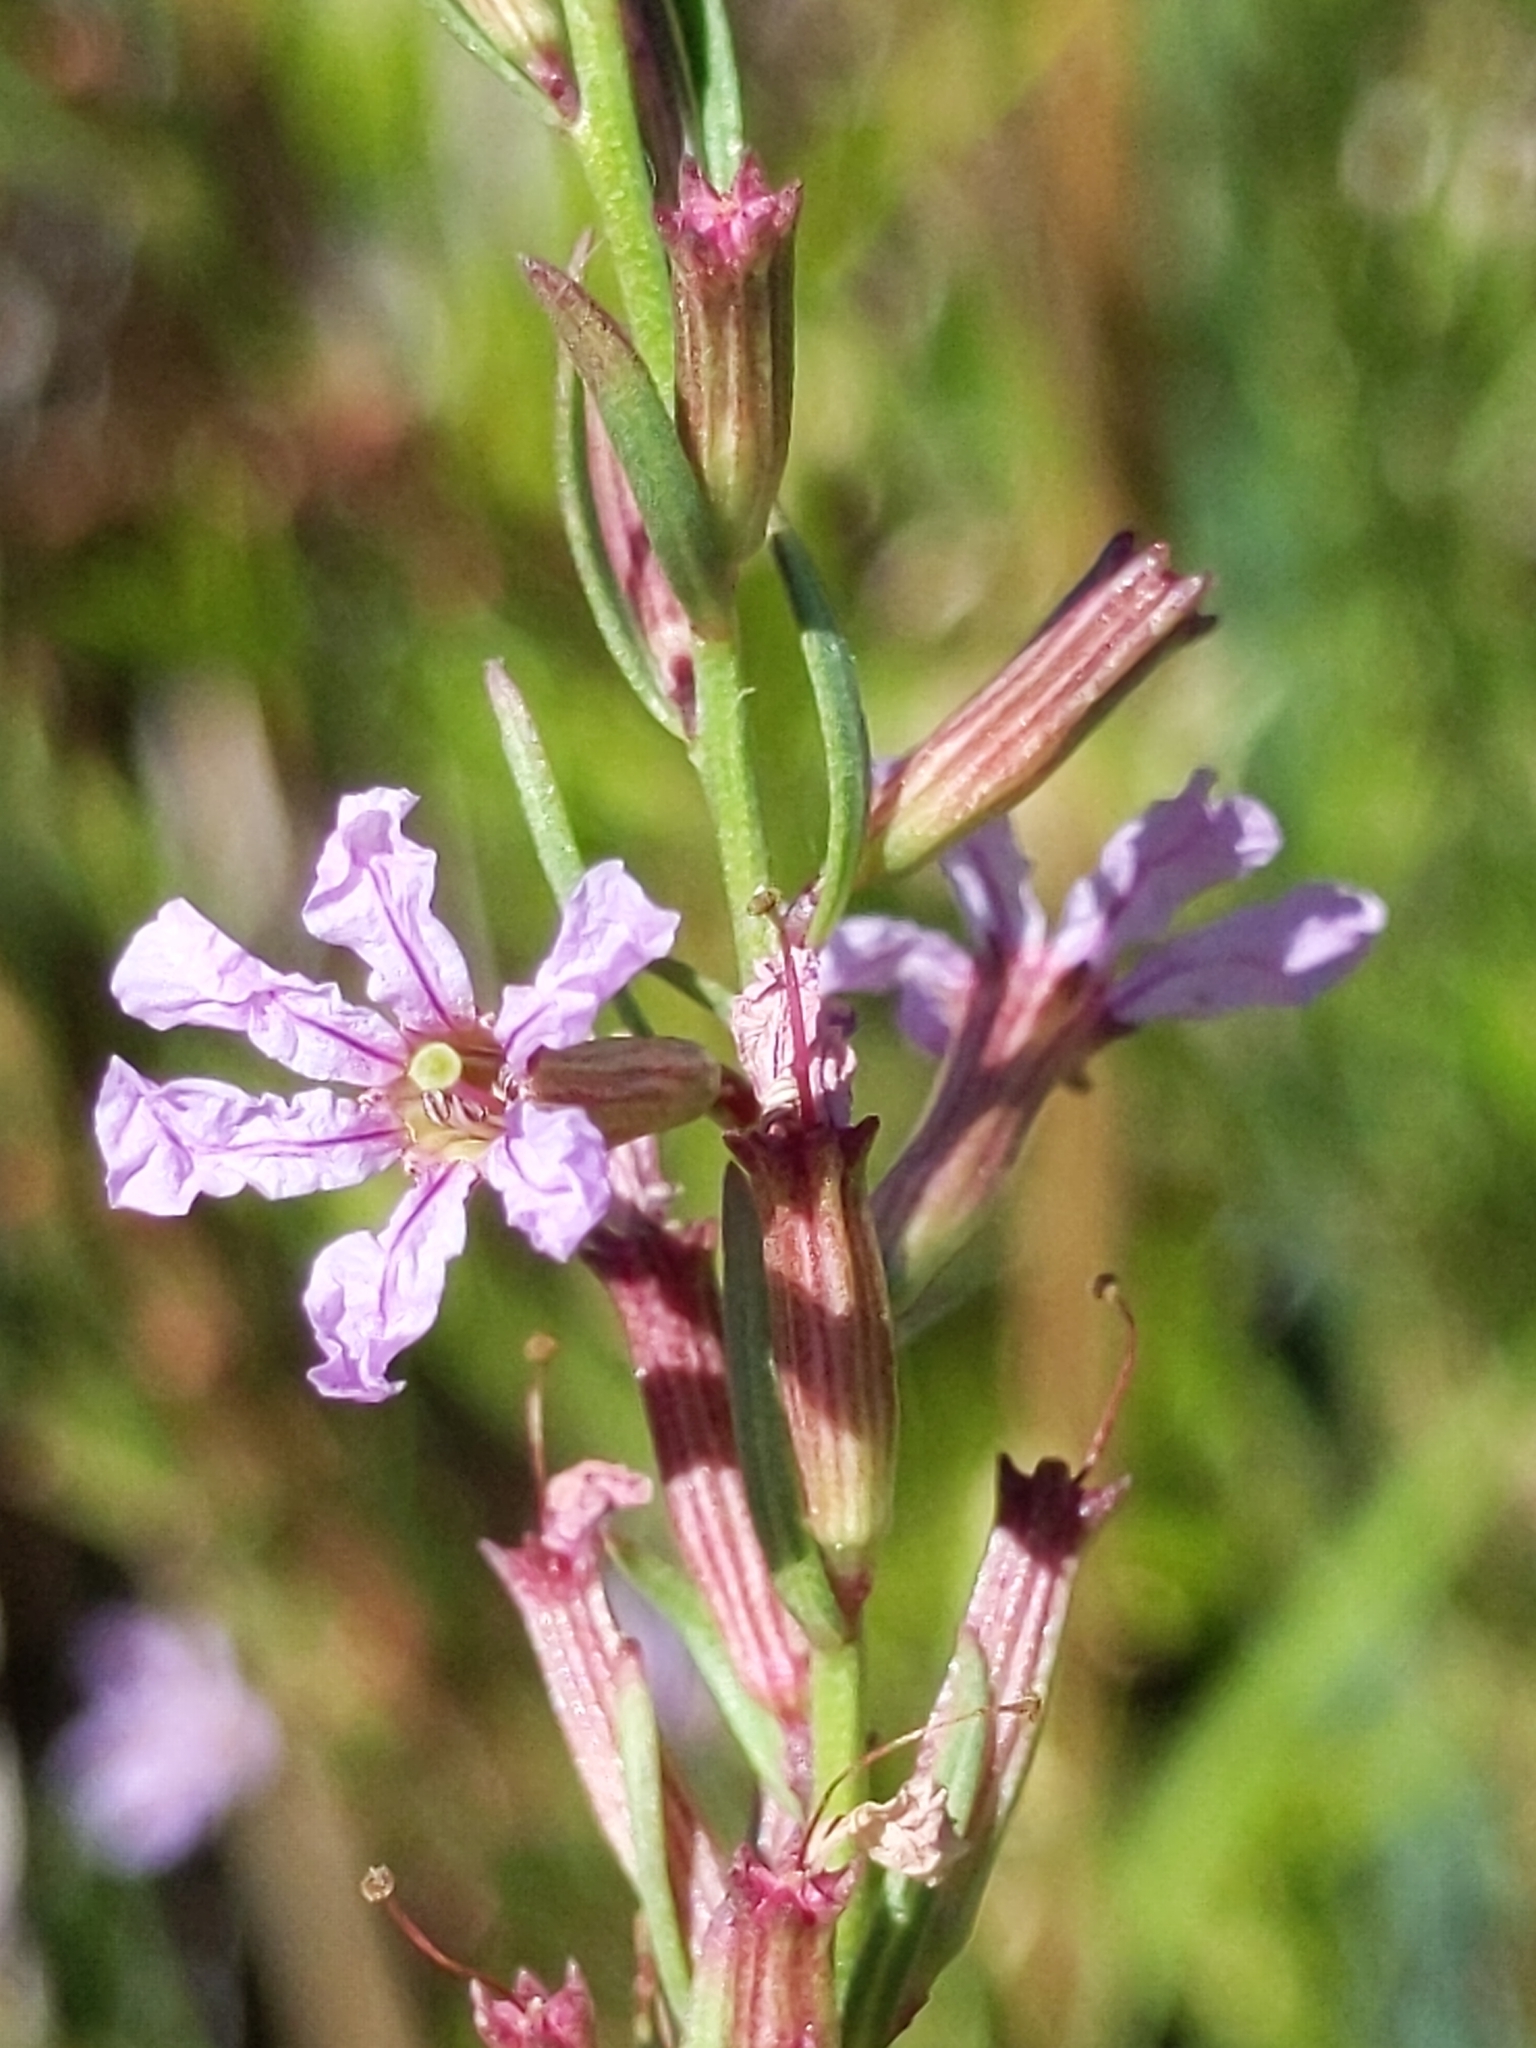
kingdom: Plantae
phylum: Tracheophyta
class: Magnoliopsida
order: Myrtales
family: Lythraceae
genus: Lythrum
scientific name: Lythrum californicum
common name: California loosestrife
